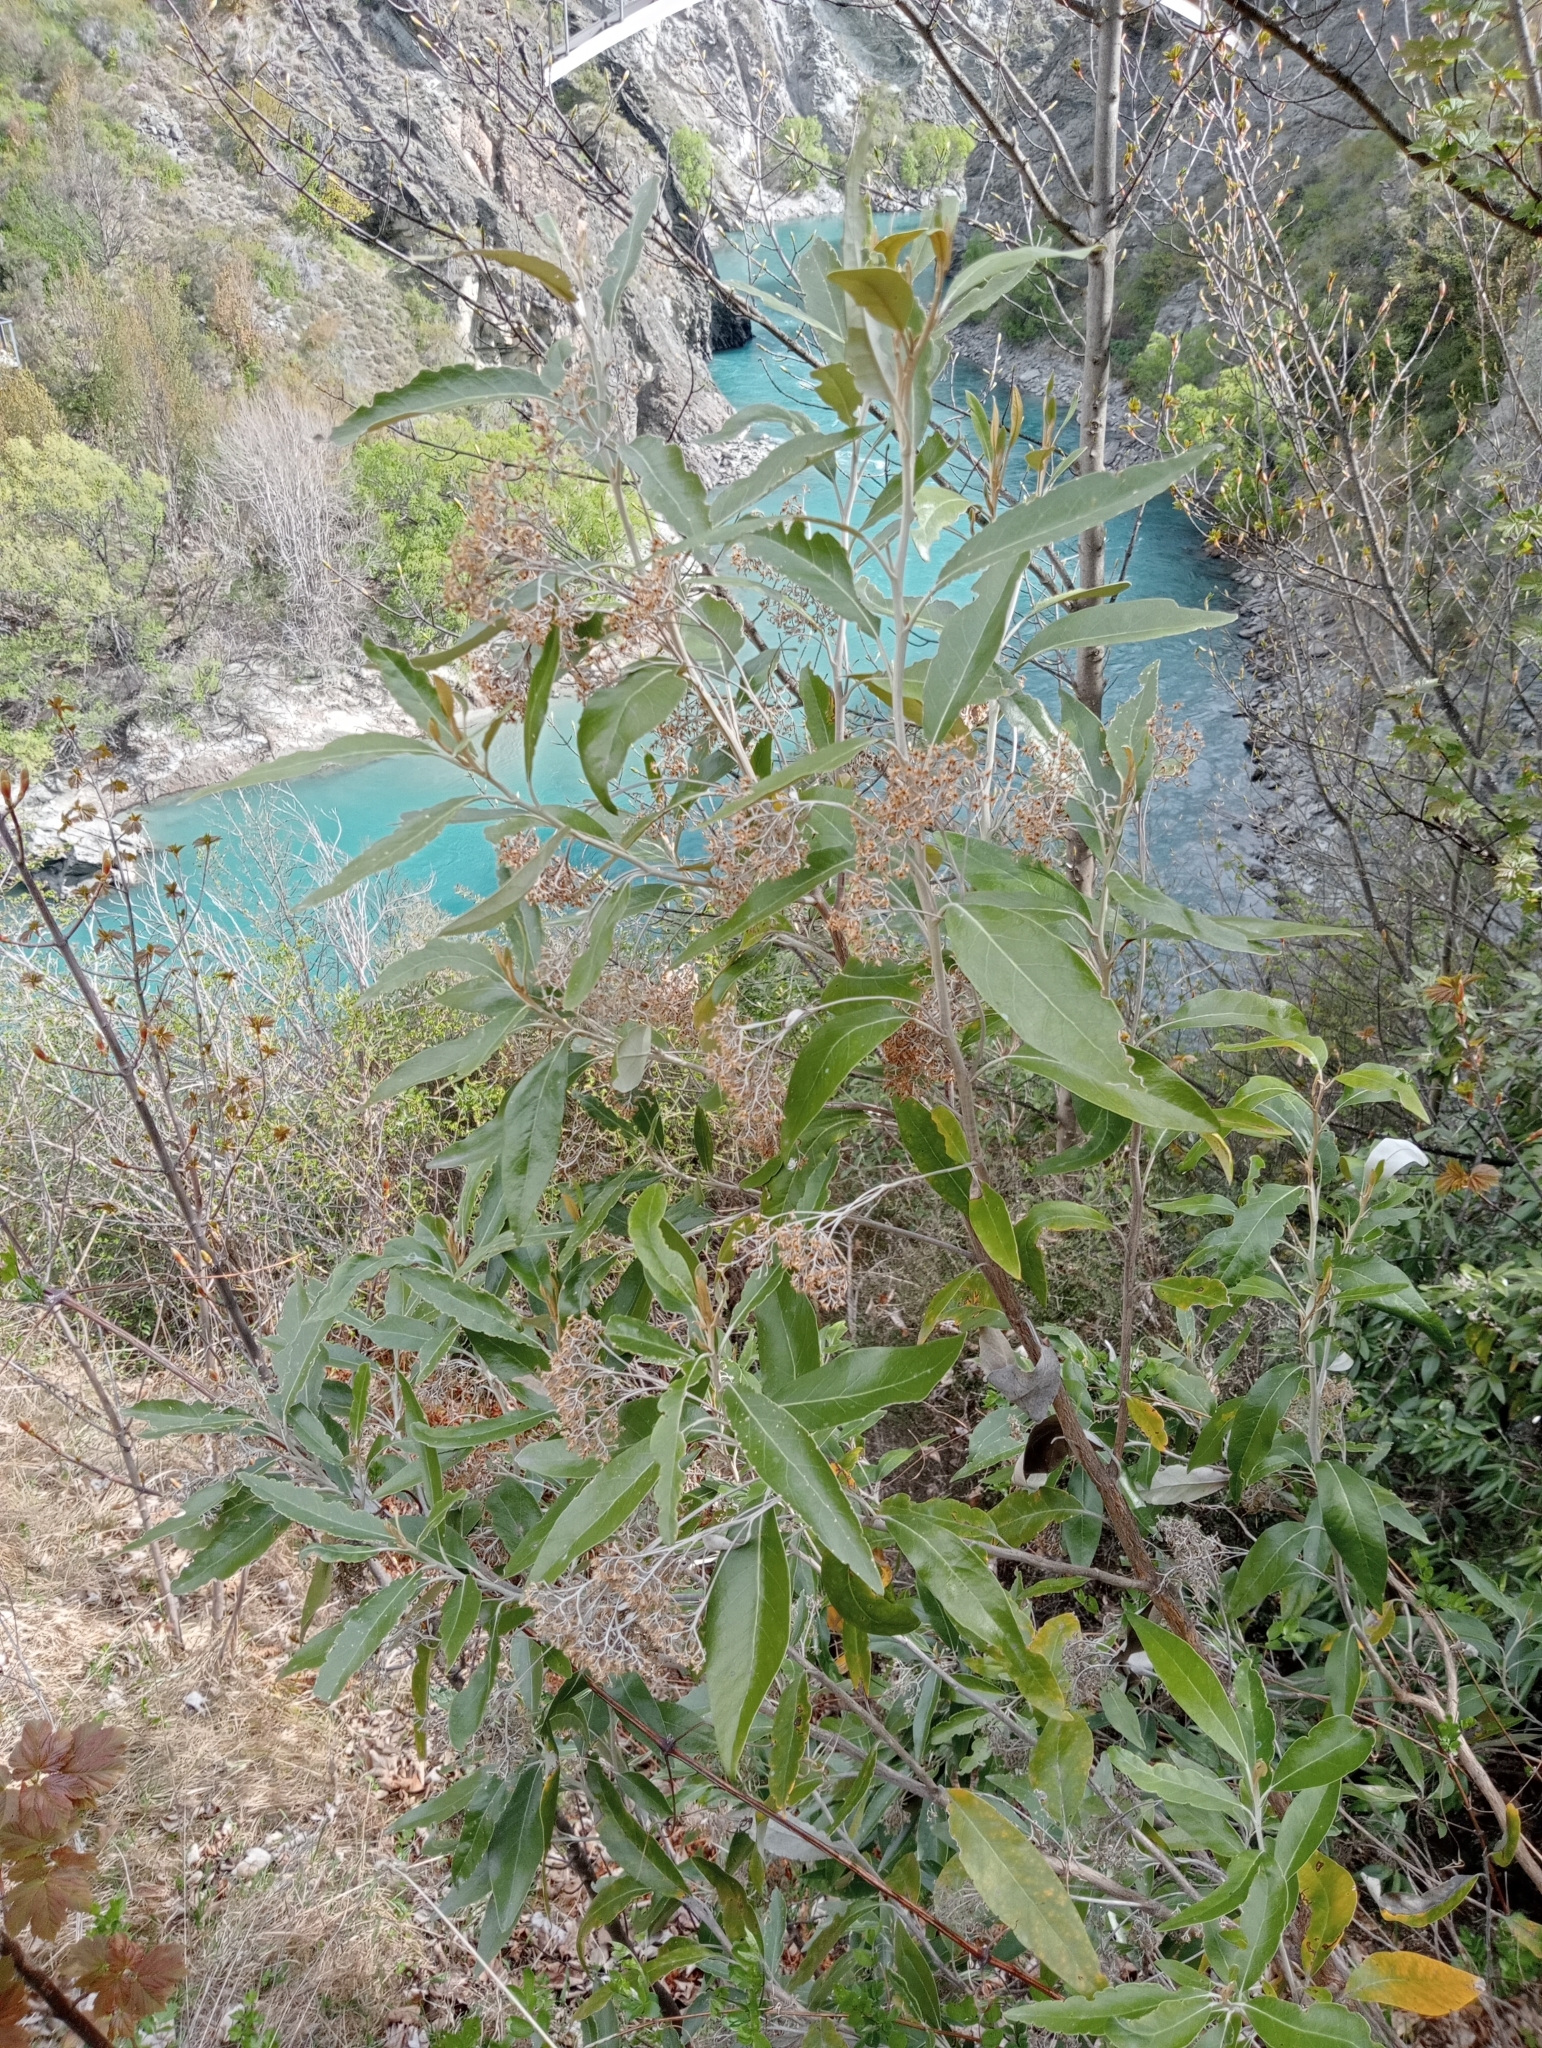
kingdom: Plantae
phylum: Tracheophyta
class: Magnoliopsida
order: Asterales
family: Asteraceae
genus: Olearia
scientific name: Olearia avicenniifolia
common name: Mangrove-leaf daisybush
